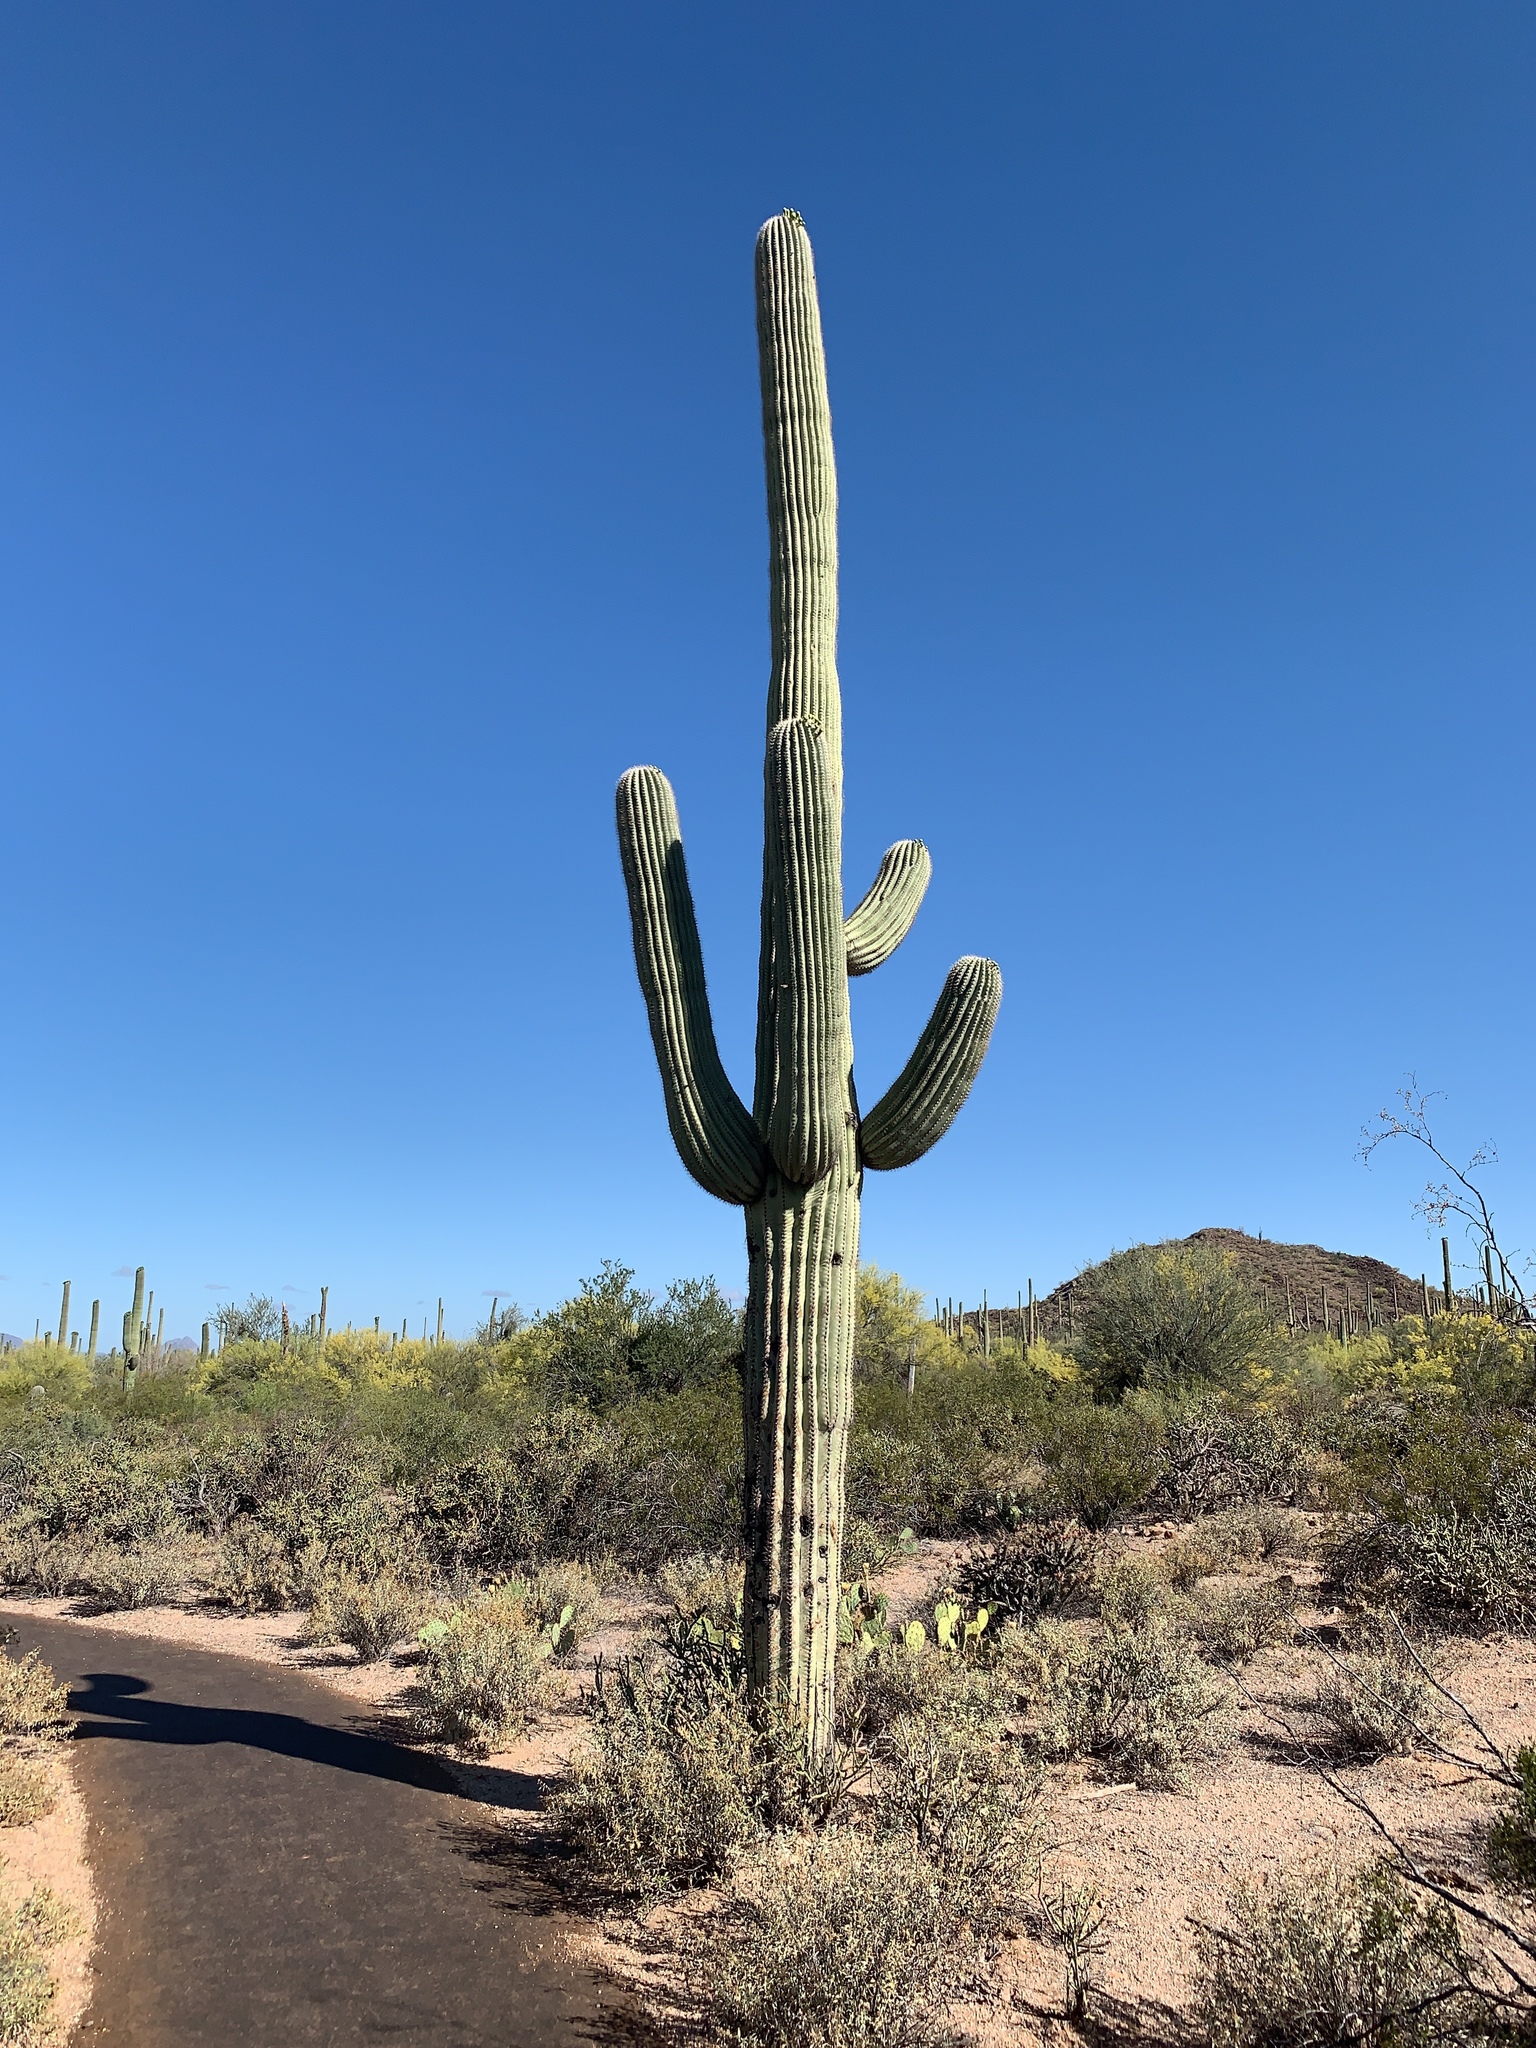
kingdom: Plantae
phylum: Tracheophyta
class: Magnoliopsida
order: Caryophyllales
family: Cactaceae
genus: Carnegiea
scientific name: Carnegiea gigantea
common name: Saguaro
